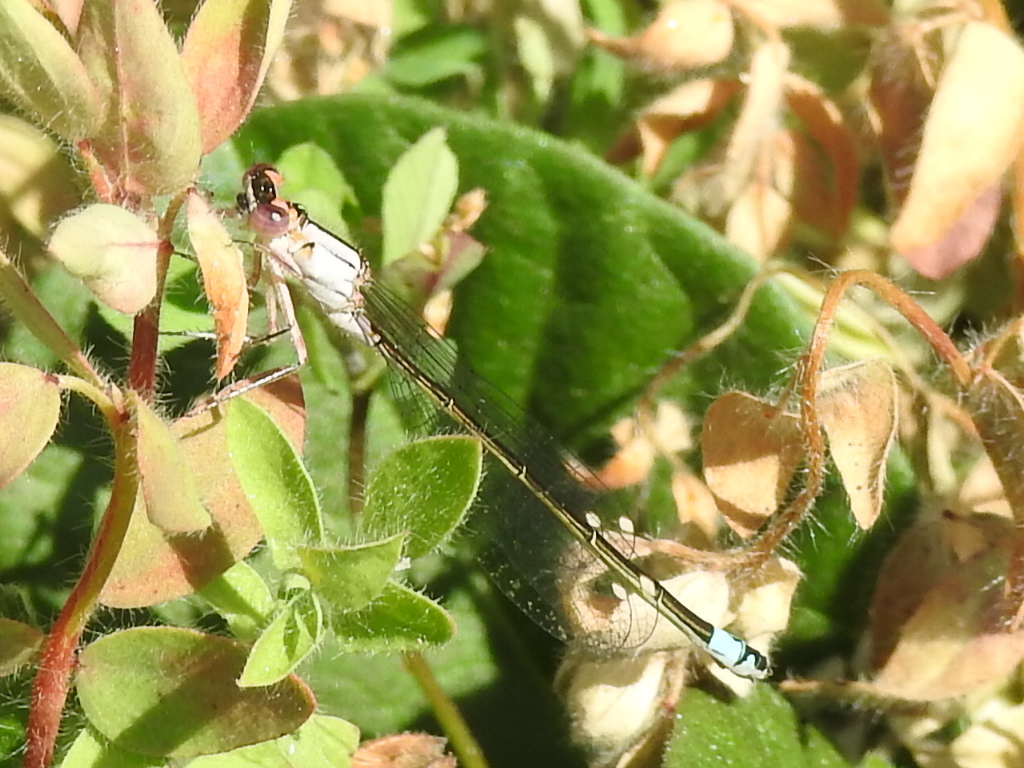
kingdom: Animalia
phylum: Arthropoda
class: Insecta
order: Odonata
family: Coenagrionidae
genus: Ischnura
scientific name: Ischnura cervula
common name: Pacific forktail
